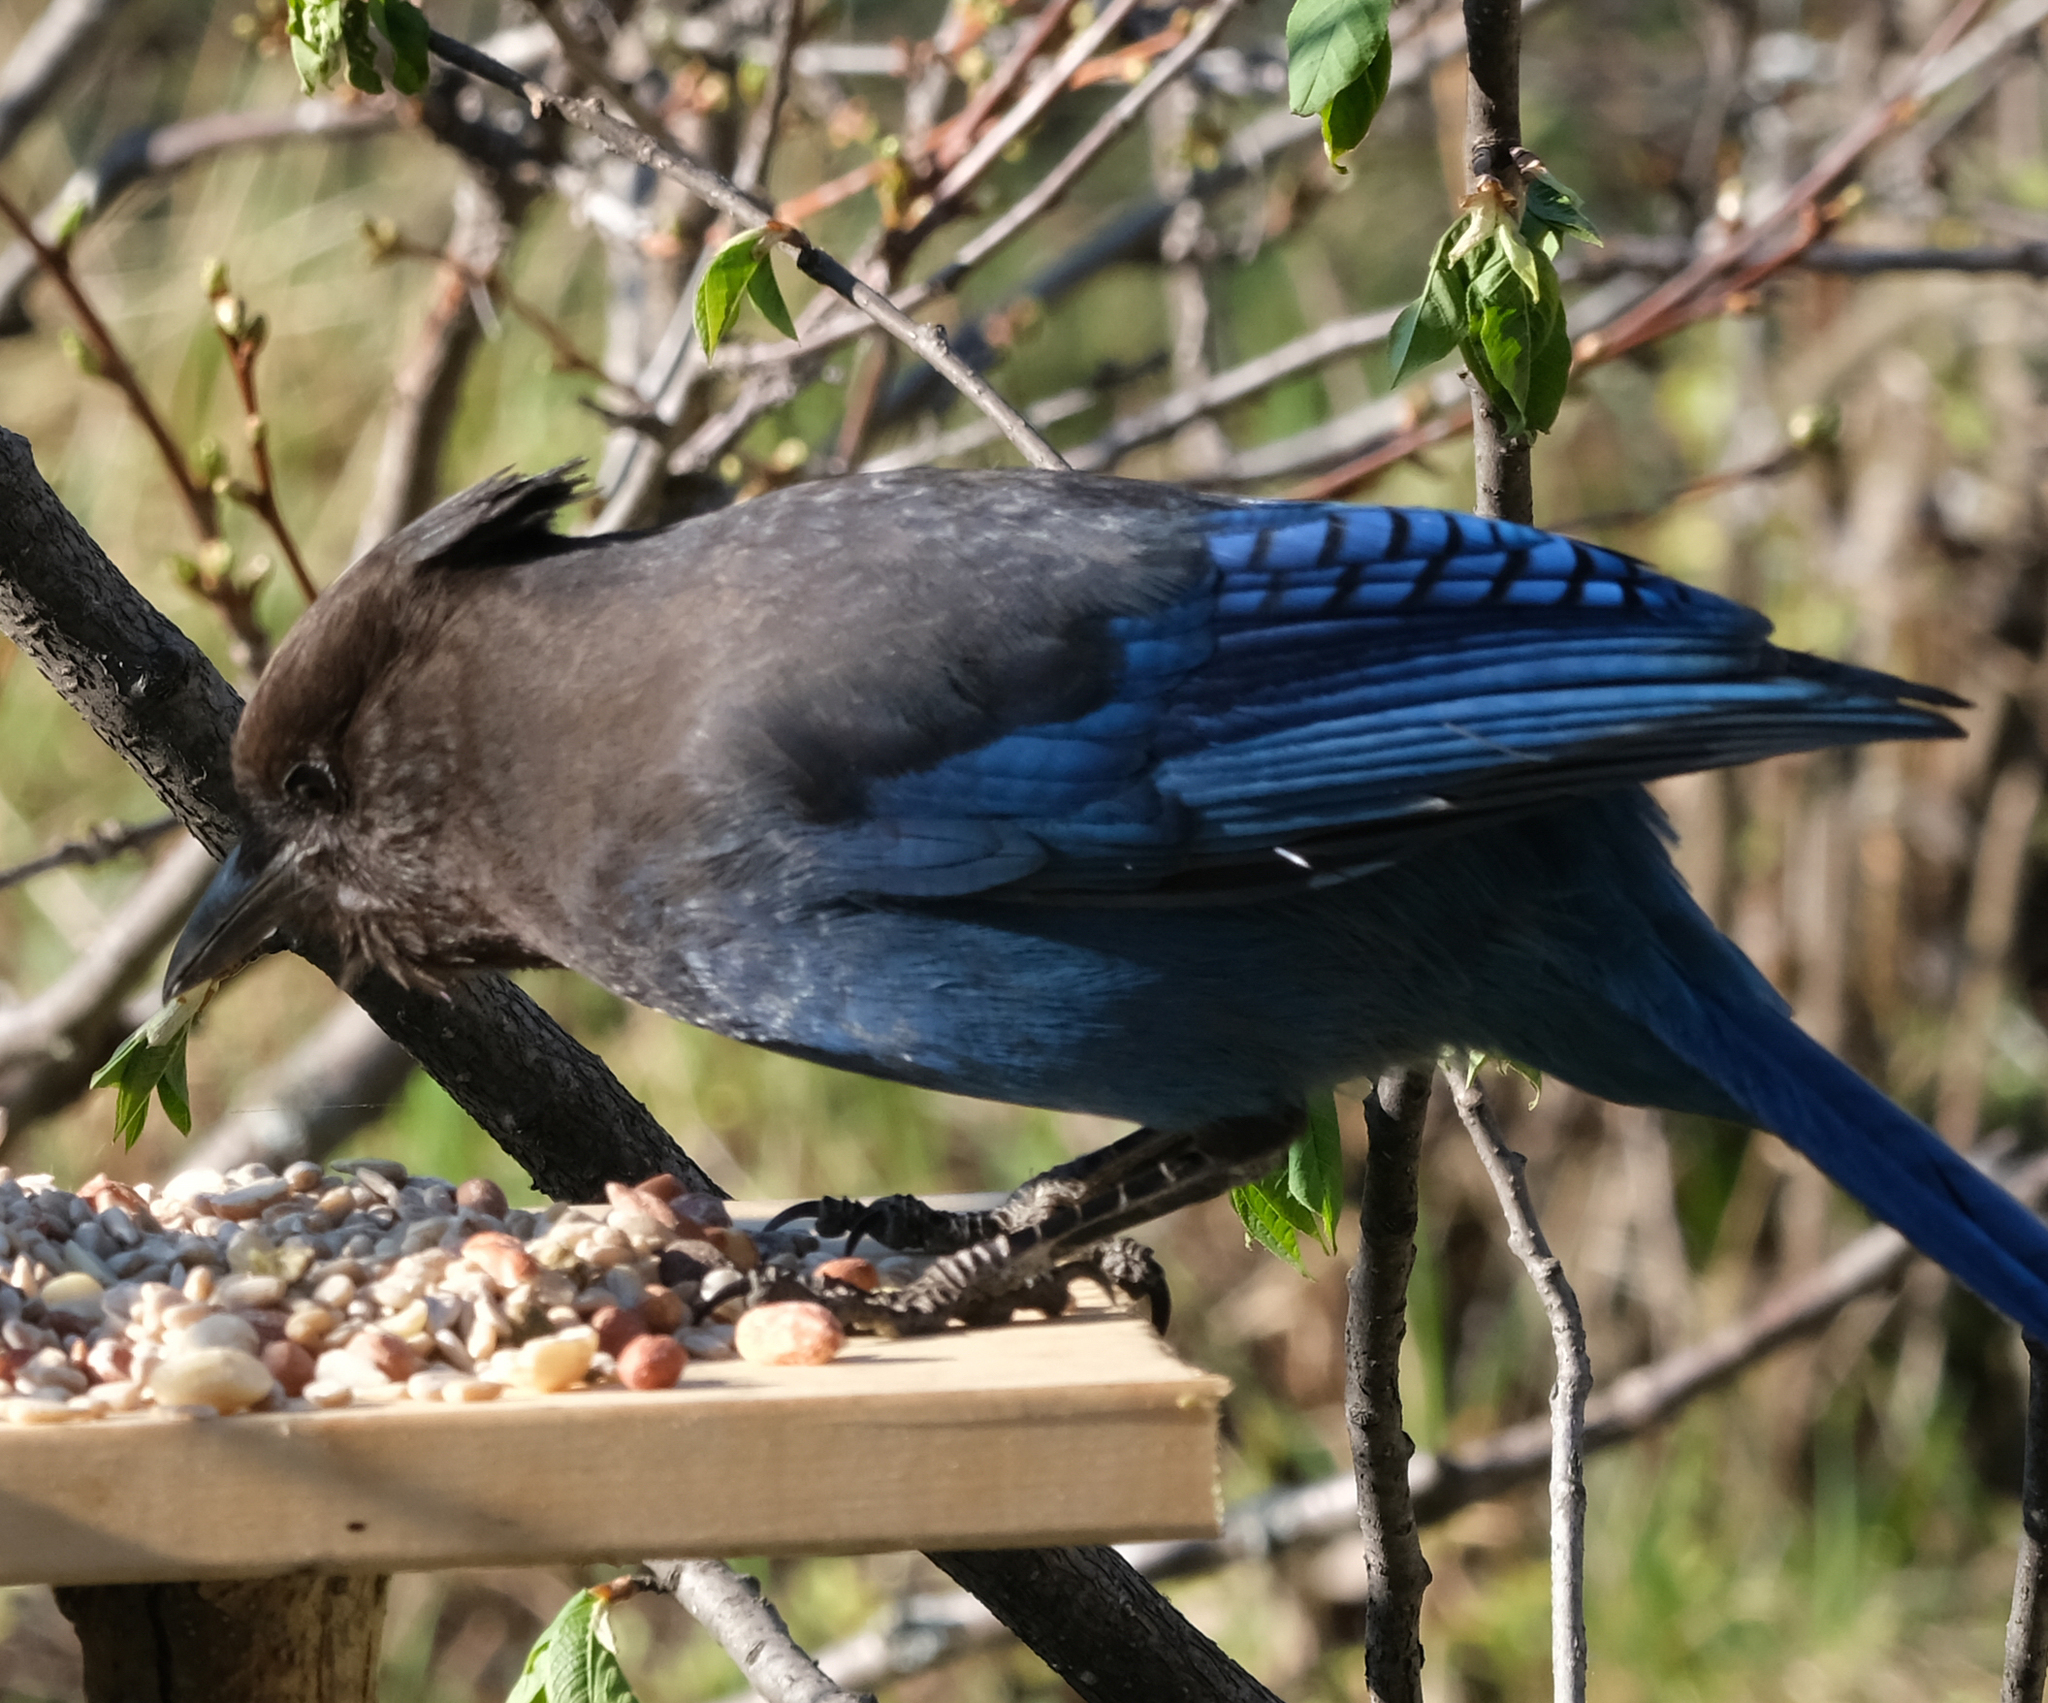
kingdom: Animalia
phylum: Chordata
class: Aves
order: Passeriformes
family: Corvidae
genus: Cyanocitta
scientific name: Cyanocitta stelleri
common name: Steller's jay
